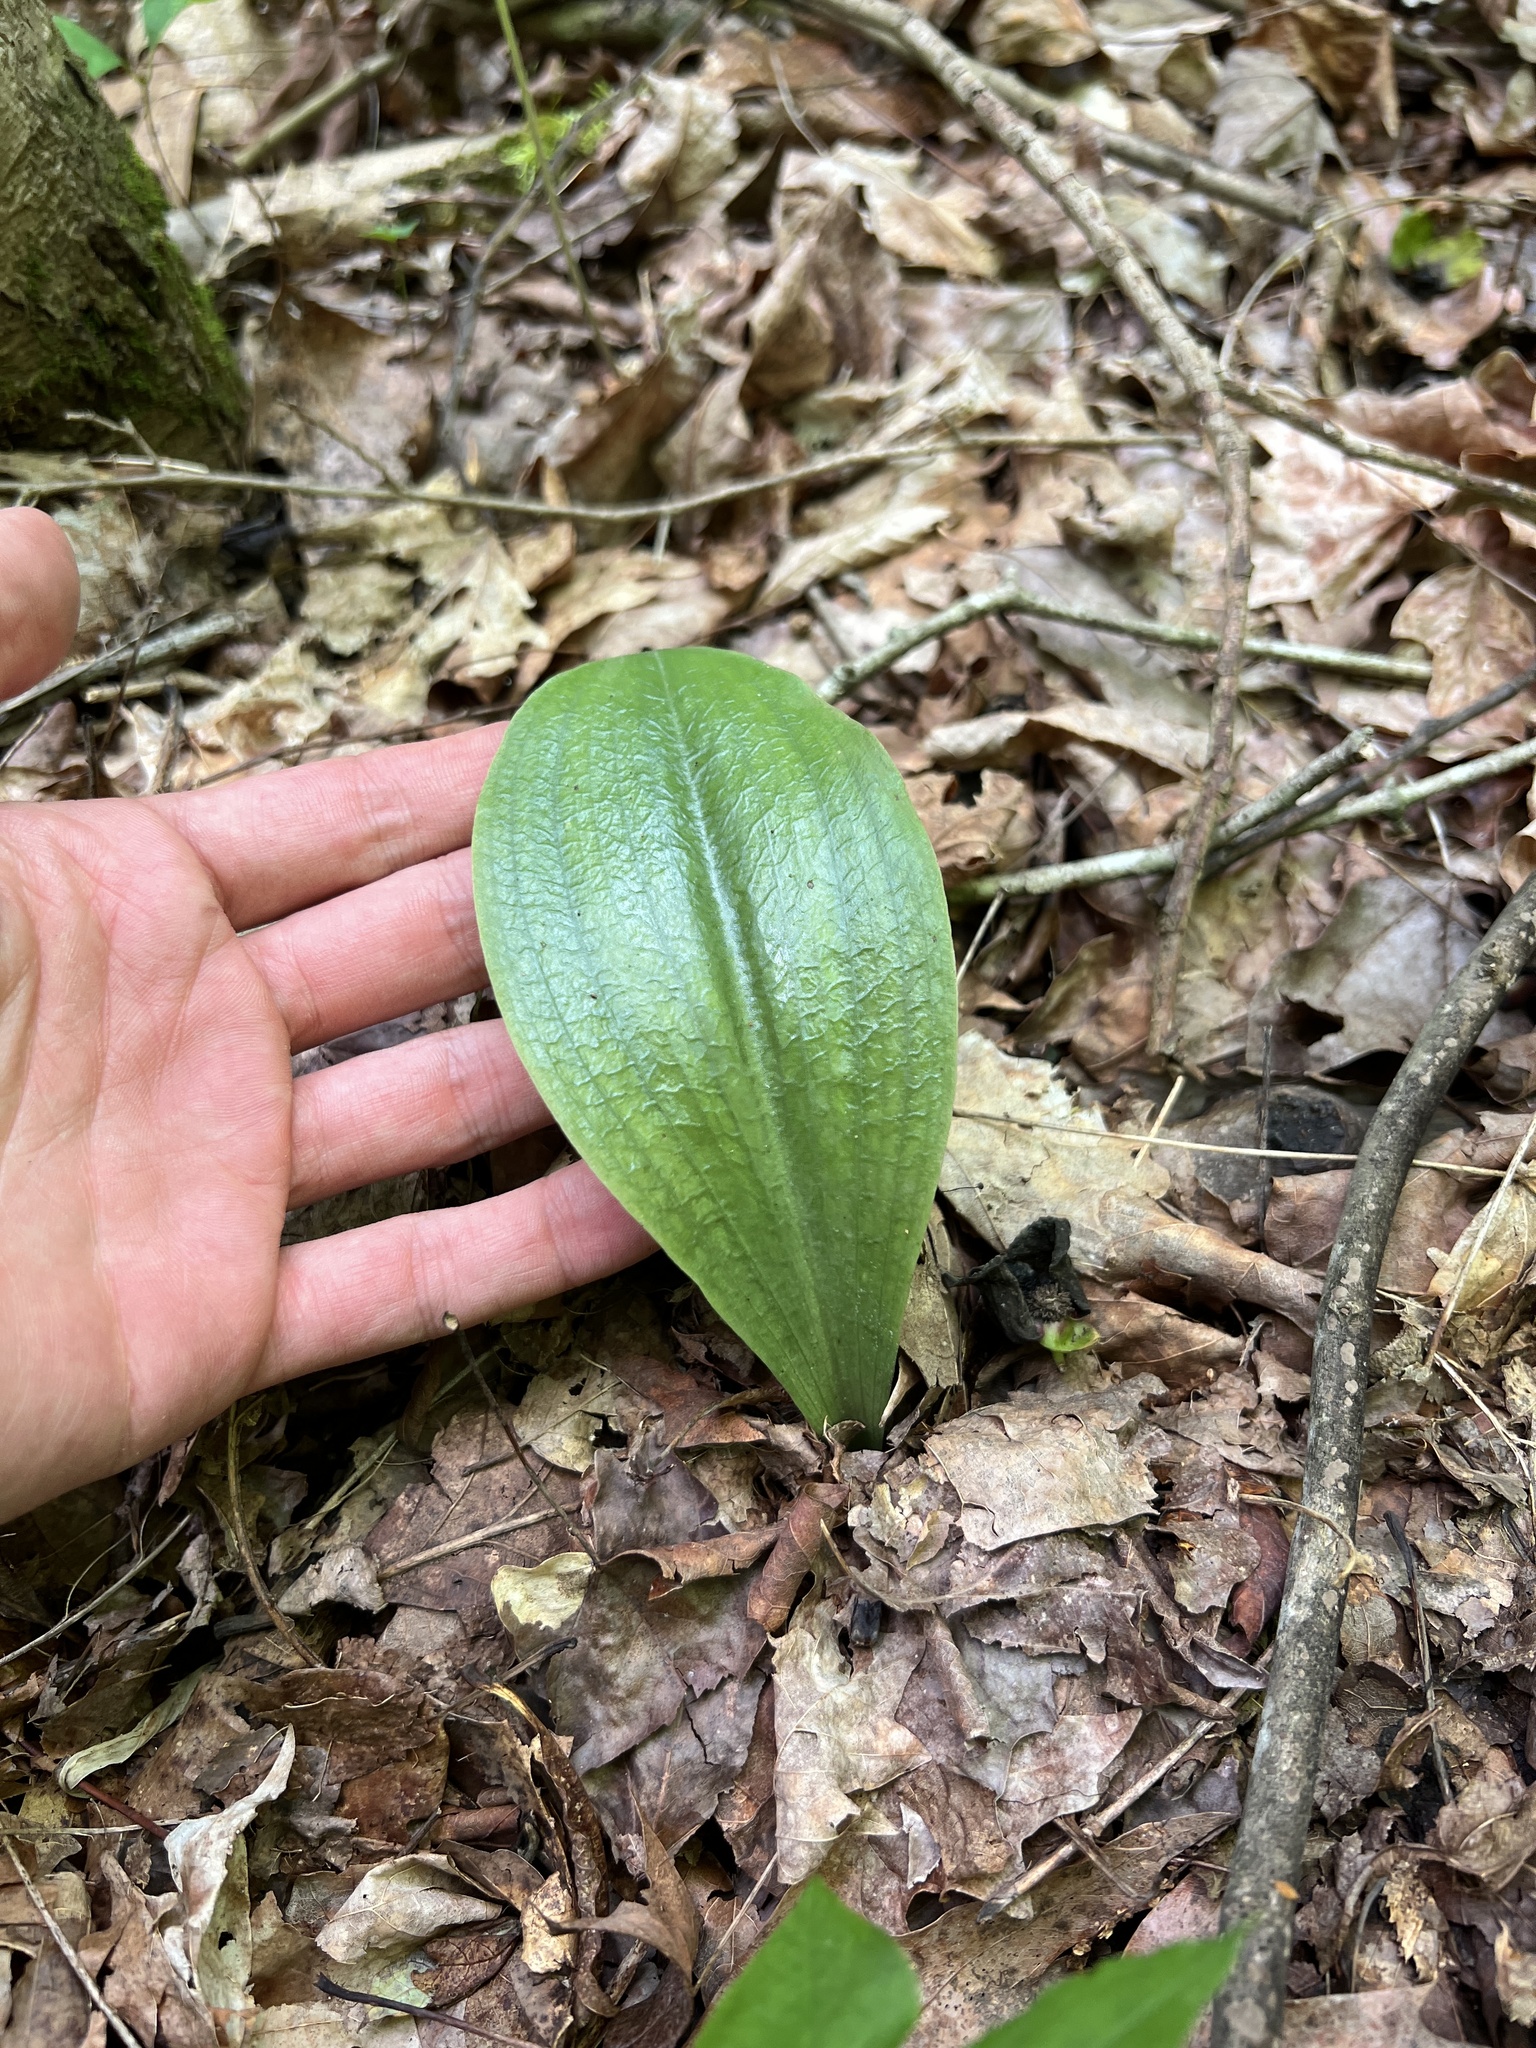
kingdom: Plantae
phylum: Tracheophyta
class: Liliopsida
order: Asparagales
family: Orchidaceae
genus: Galearis
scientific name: Galearis spectabilis
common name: Purple-hooded orchis
